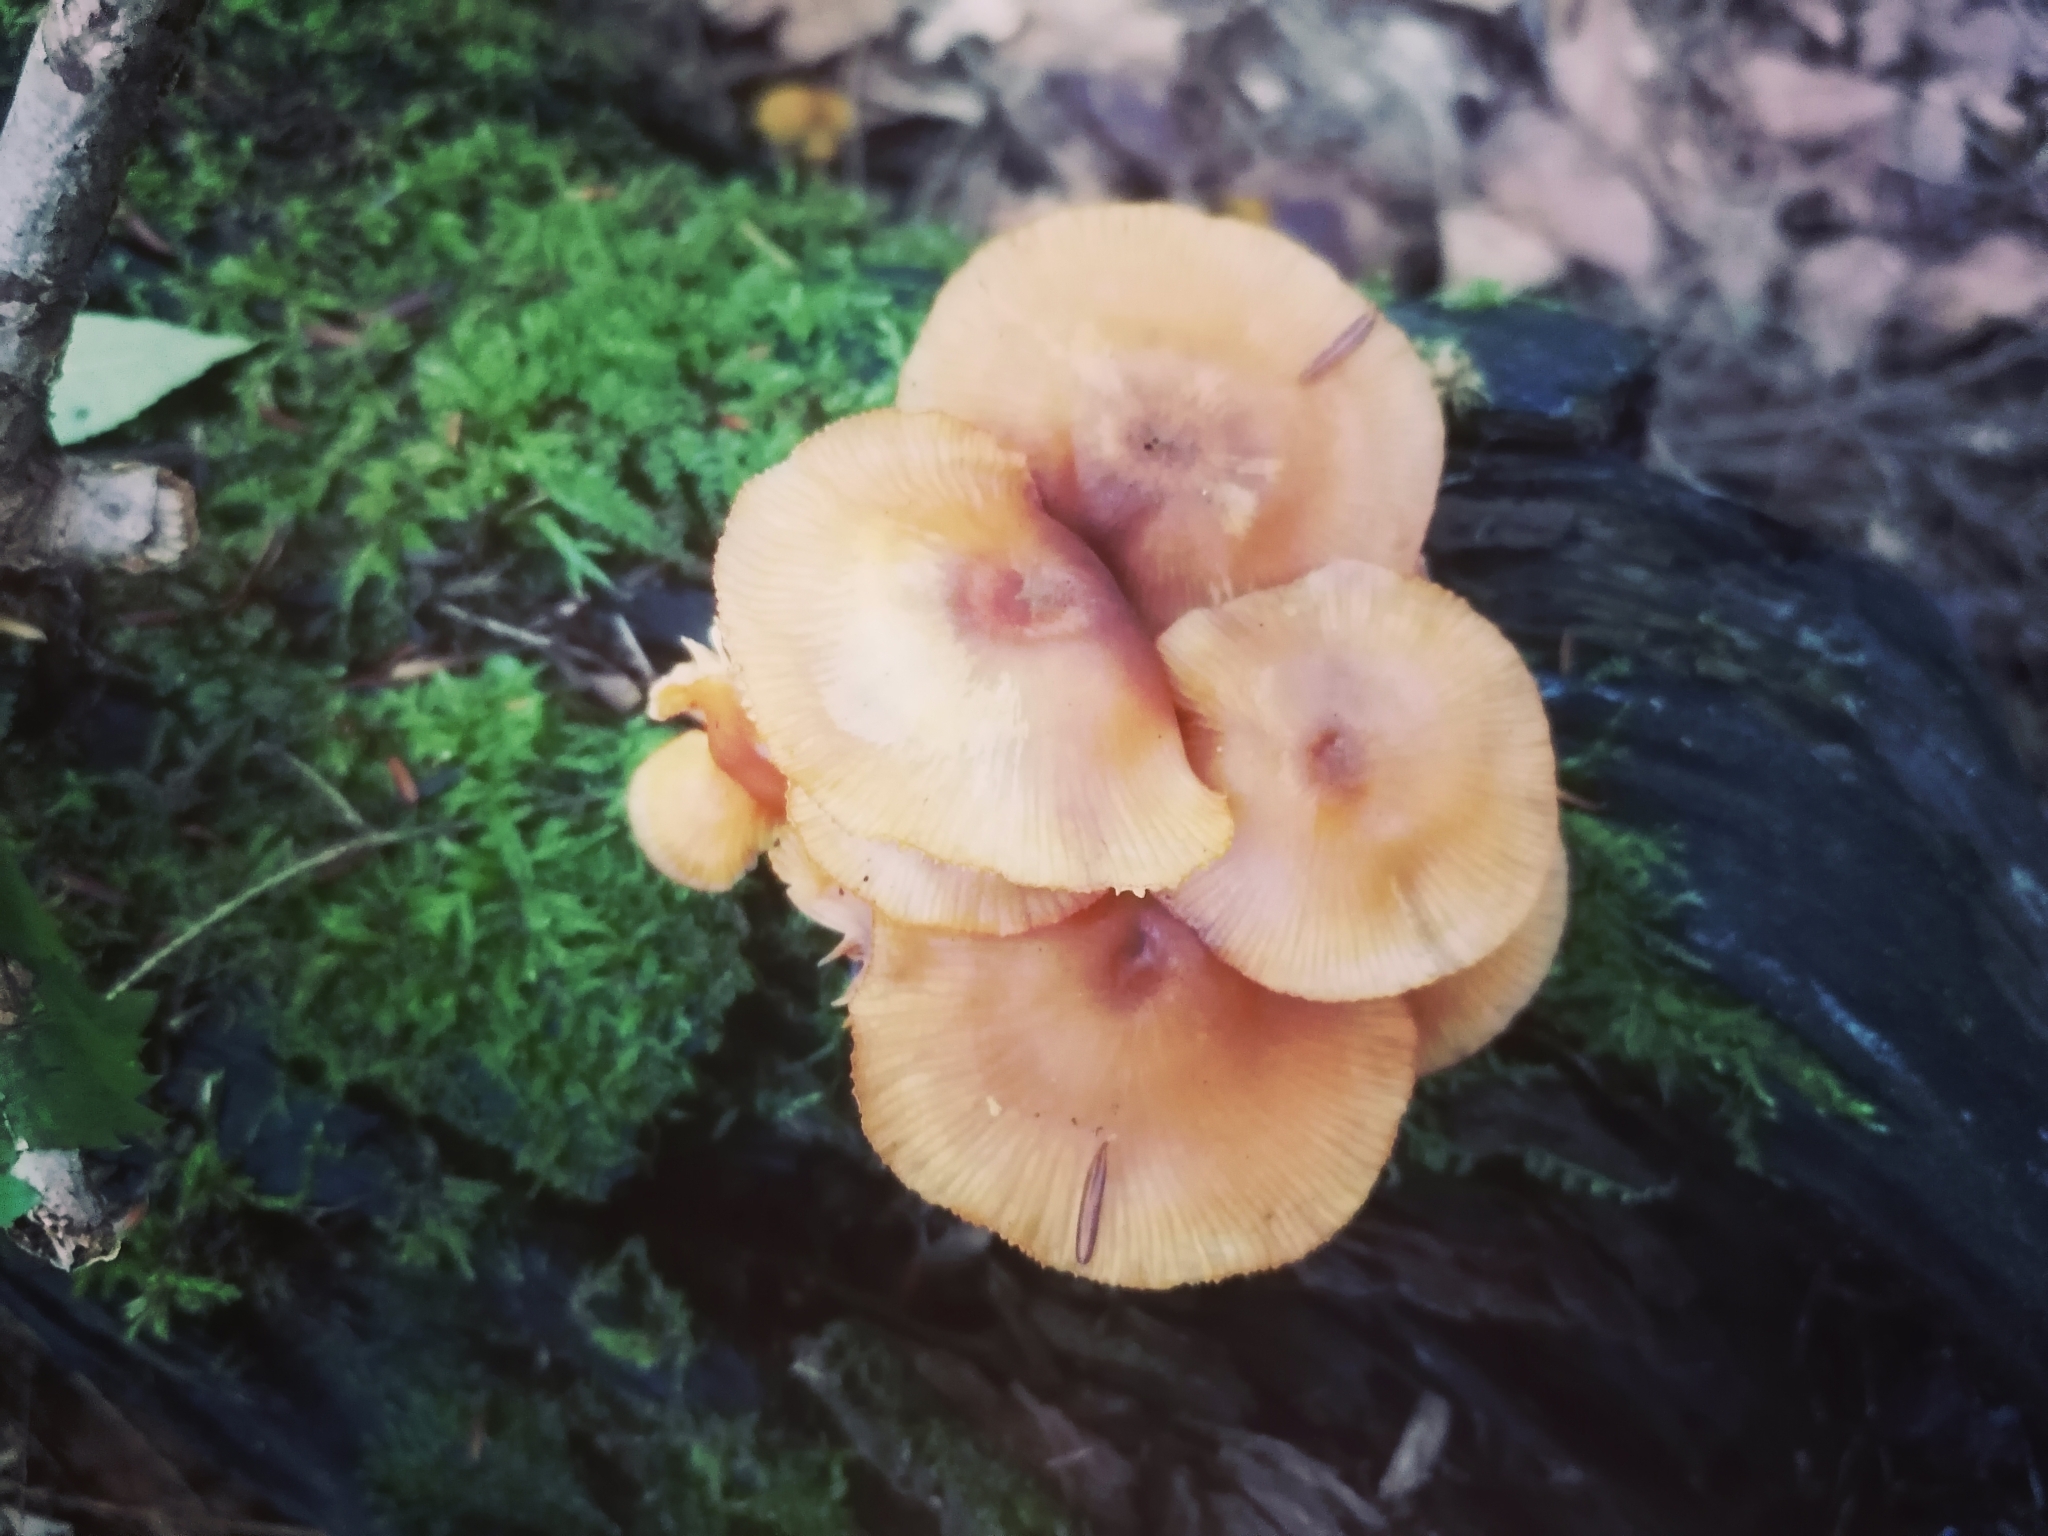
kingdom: Fungi
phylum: Basidiomycota
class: Agaricomycetes
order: Agaricales
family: Mycenaceae
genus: Mycena
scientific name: Mycena leaiana
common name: Orange mycena
